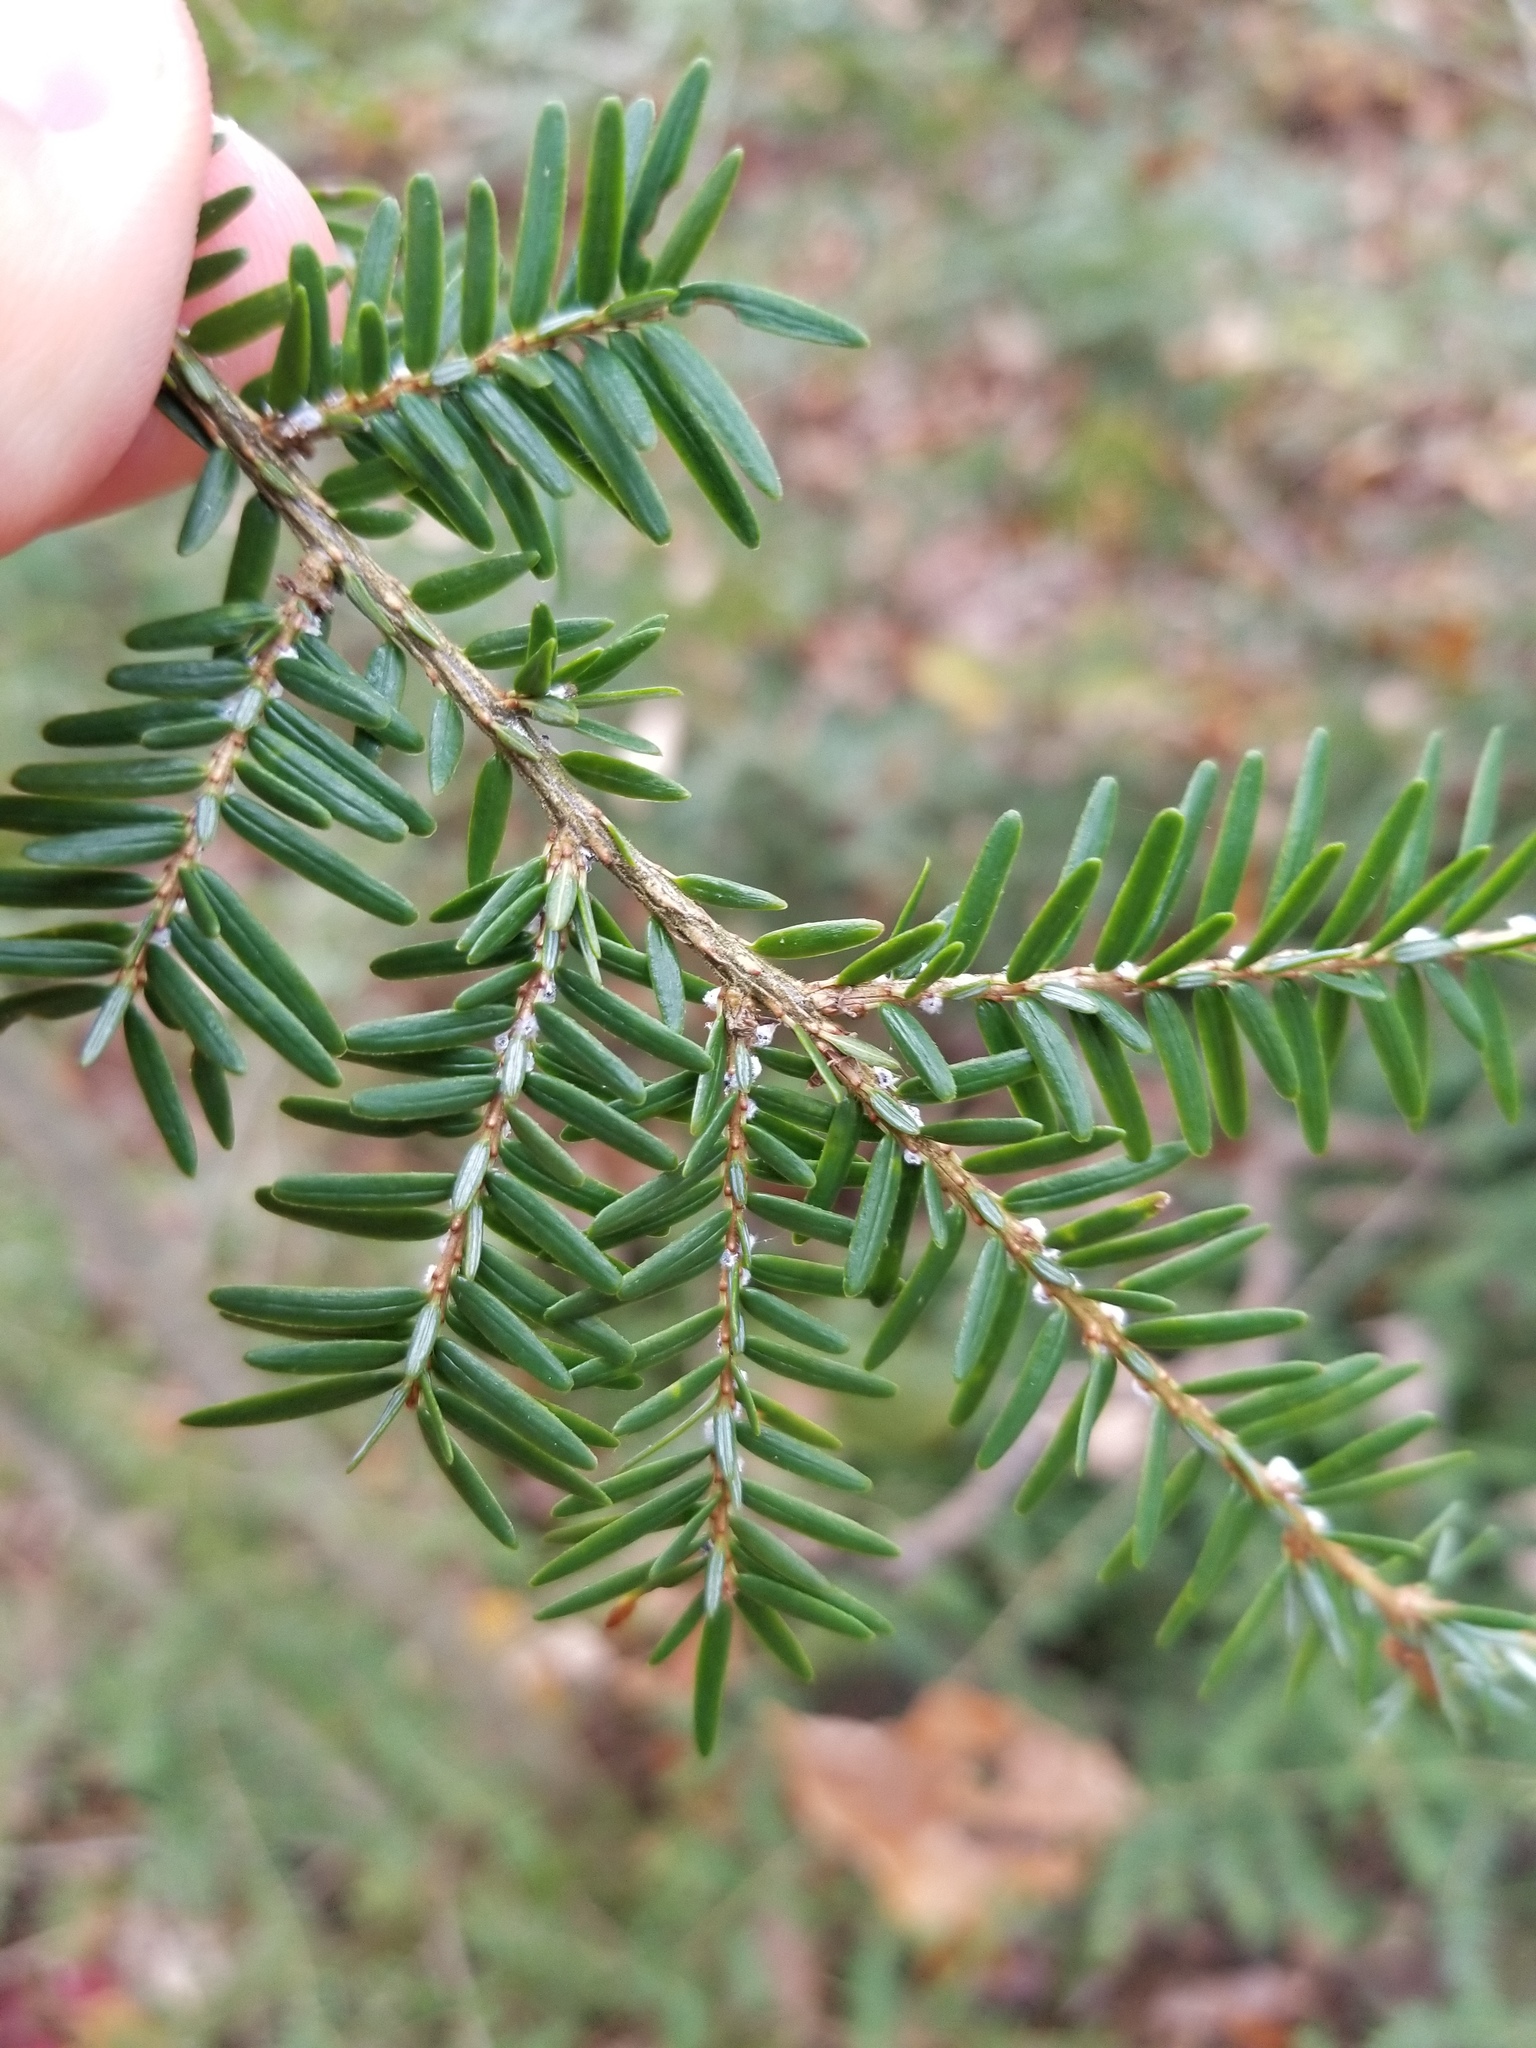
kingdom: Animalia
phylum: Arthropoda
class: Insecta
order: Hemiptera
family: Adelgidae
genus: Adelges
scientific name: Adelges tsugae
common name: Hemlock woolly adelgid
